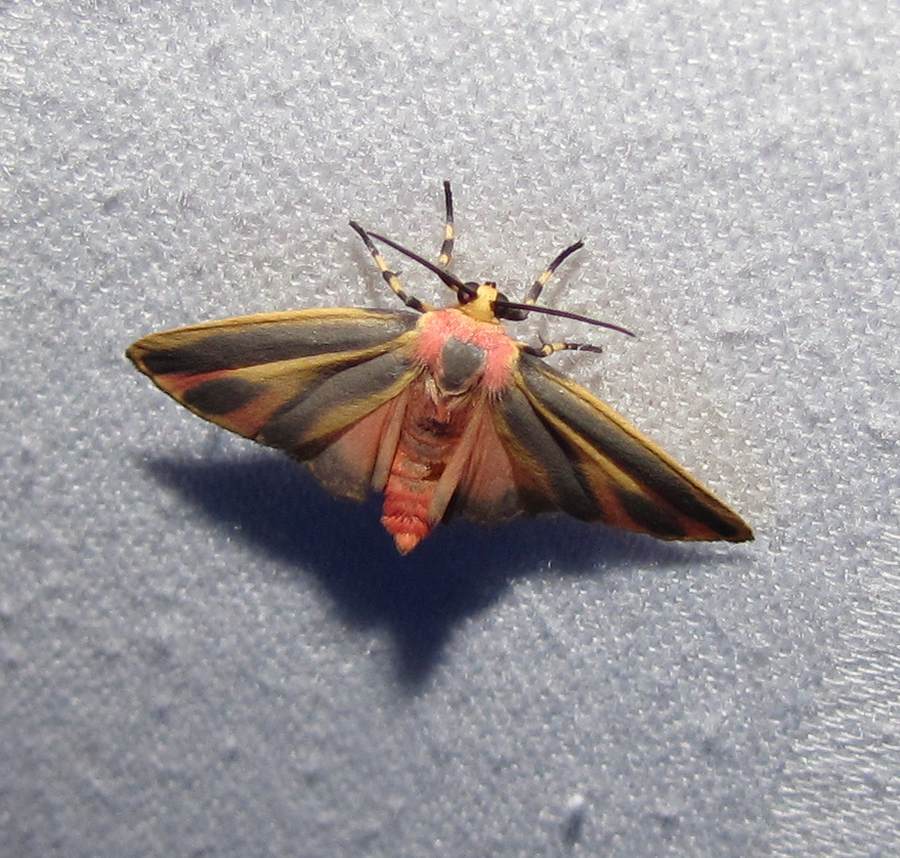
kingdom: Animalia
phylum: Arthropoda
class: Insecta
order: Lepidoptera
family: Erebidae
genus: Hypoprepia
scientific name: Hypoprepia fucosa
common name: Painted lichen moth
